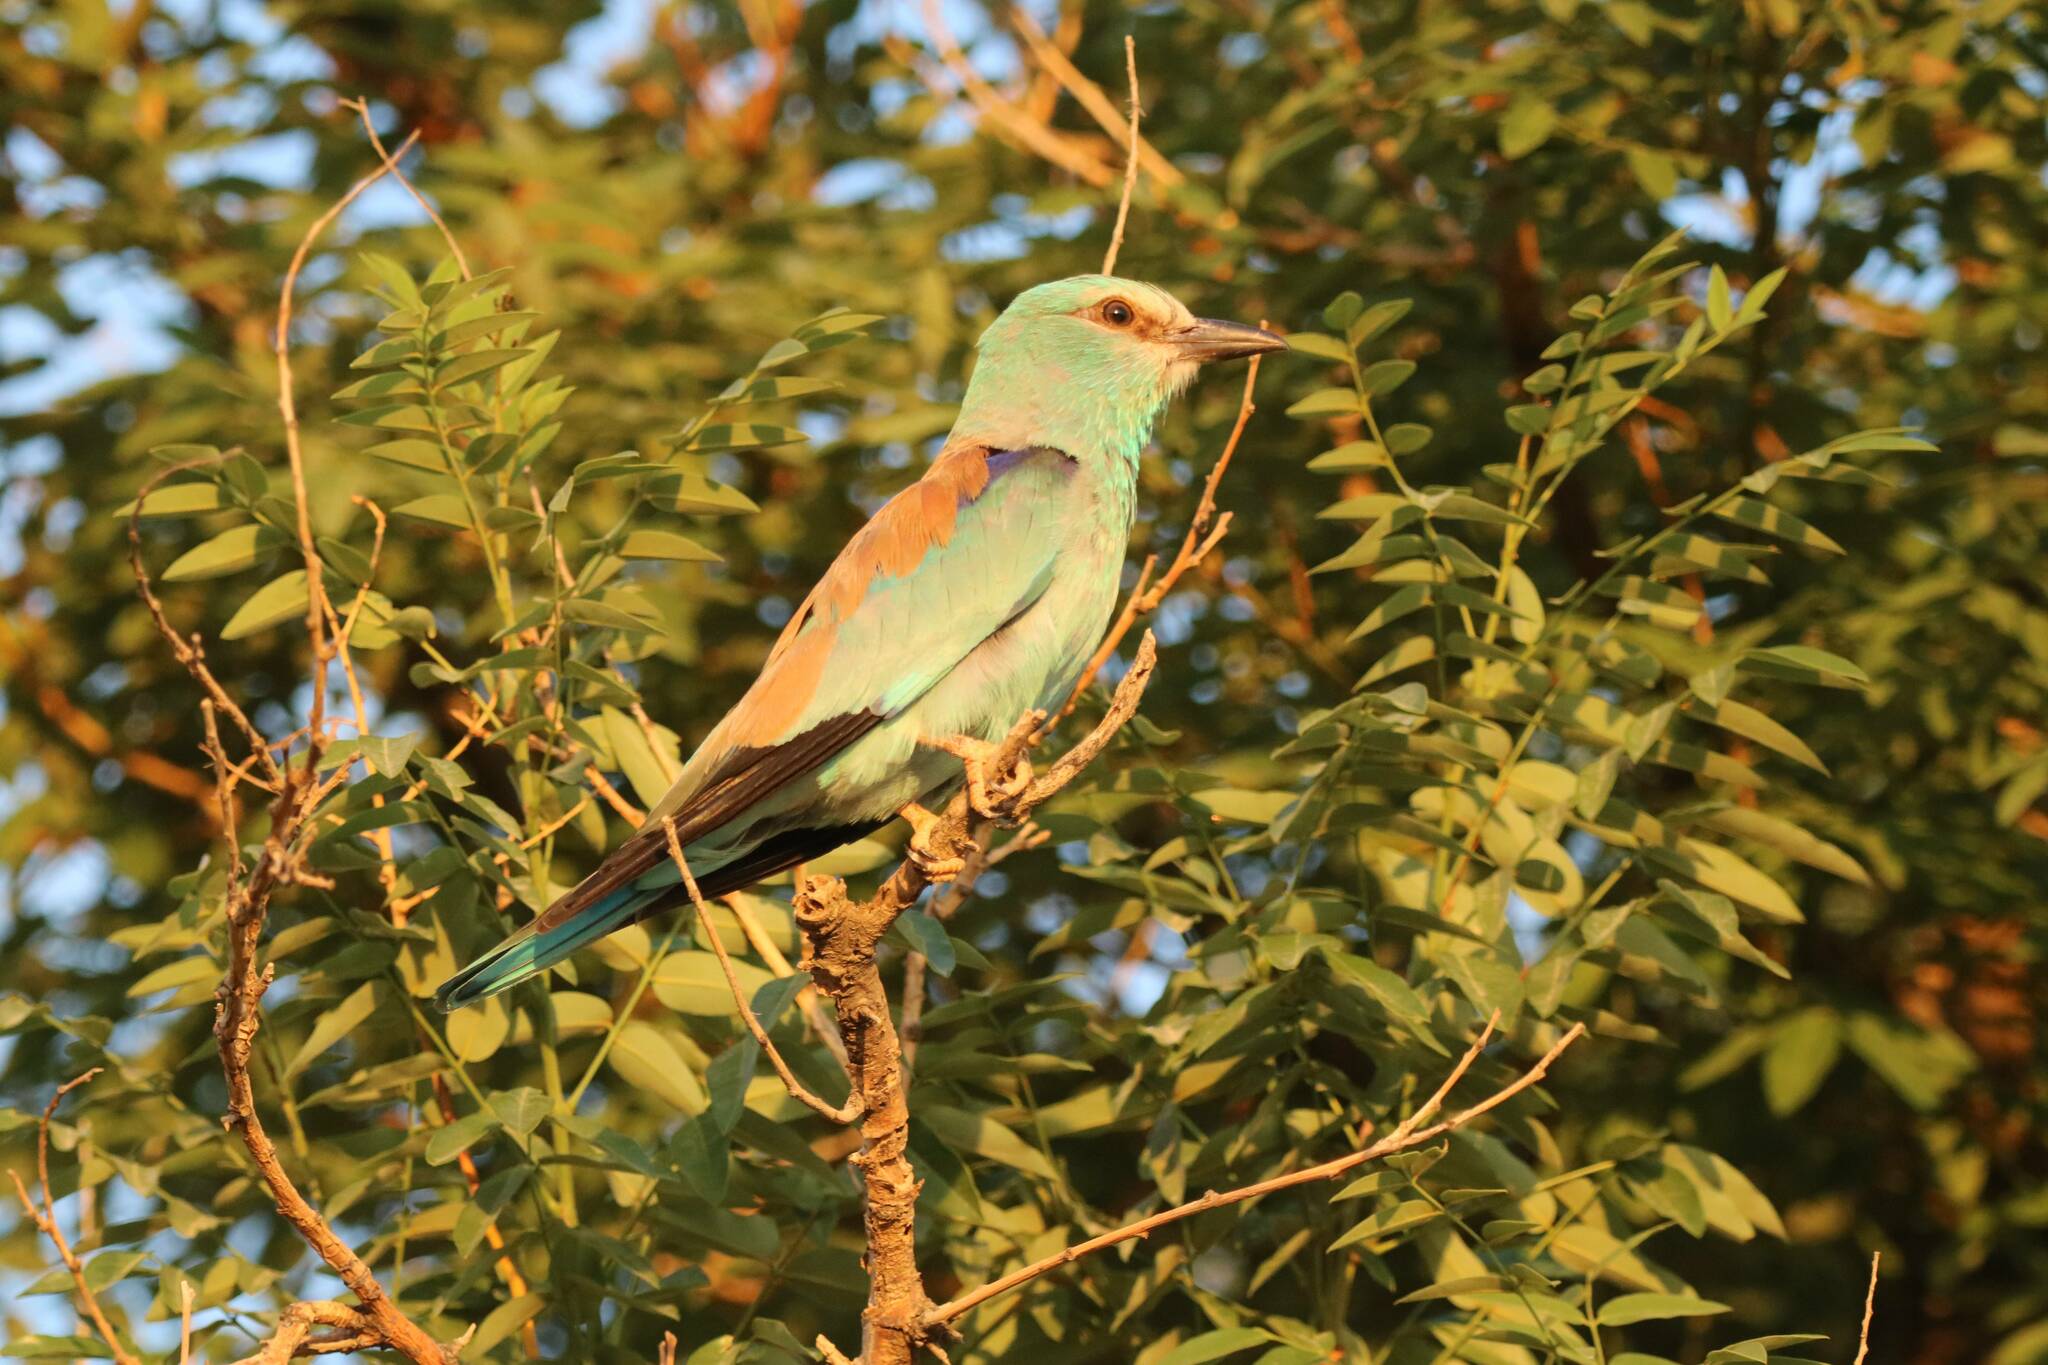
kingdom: Animalia
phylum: Chordata
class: Aves
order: Coraciiformes
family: Coraciidae
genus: Coracias
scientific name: Coracias garrulus
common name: European roller
